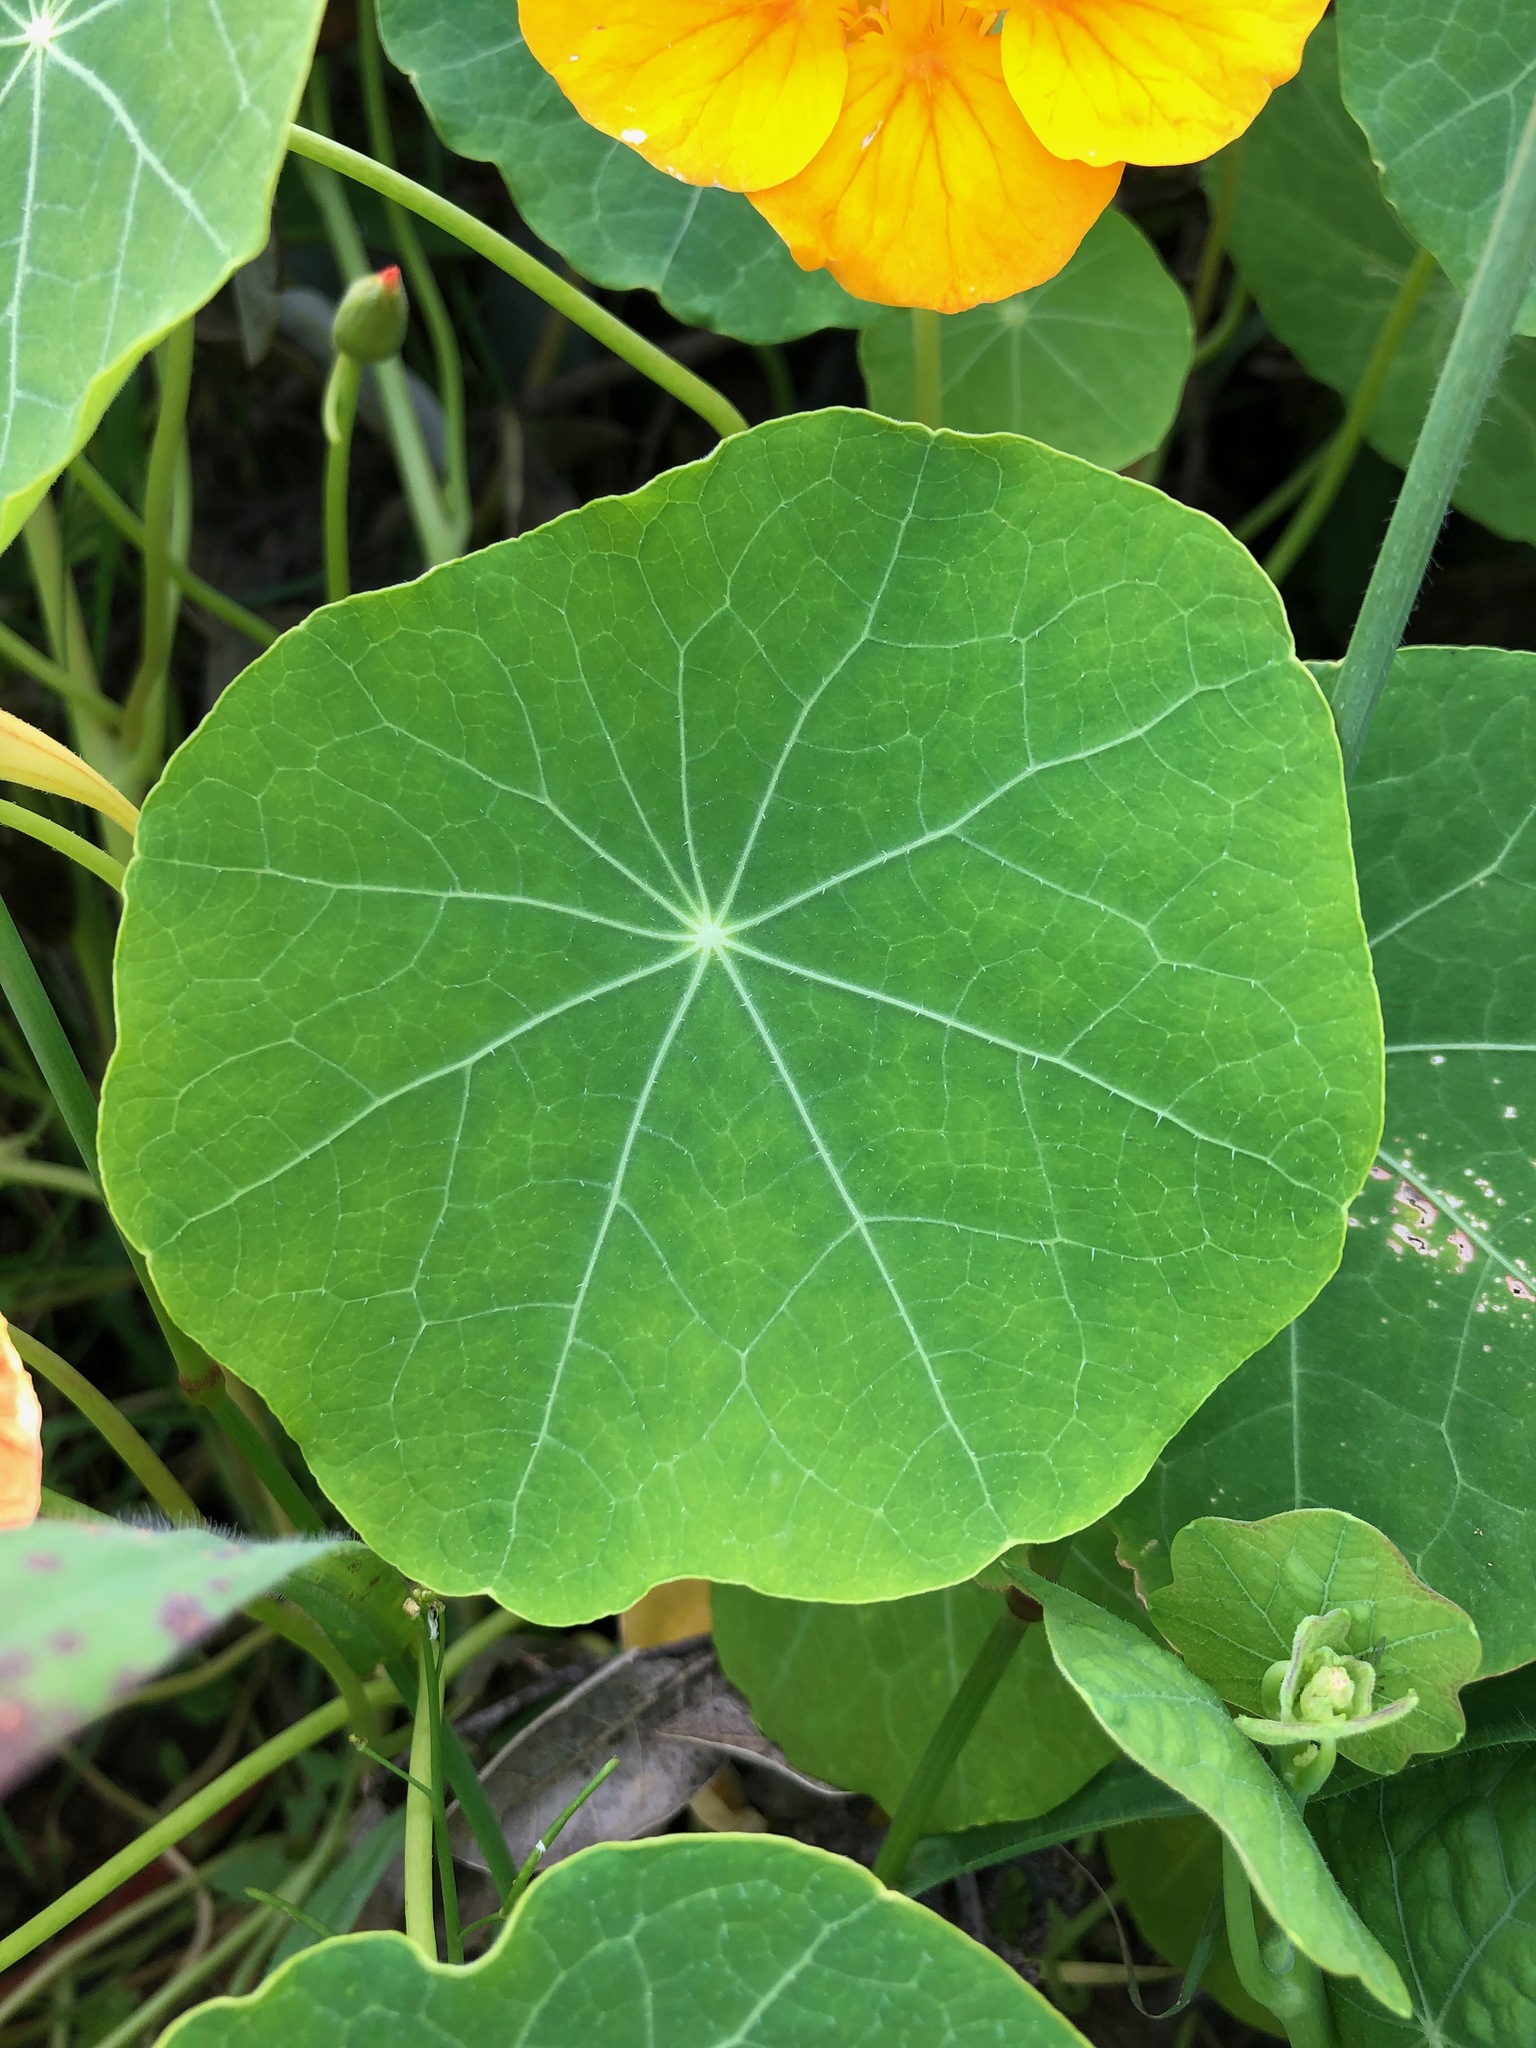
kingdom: Plantae
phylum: Tracheophyta
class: Magnoliopsida
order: Brassicales
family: Tropaeolaceae
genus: Tropaeolum
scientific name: Tropaeolum majus
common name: Nasturtium
